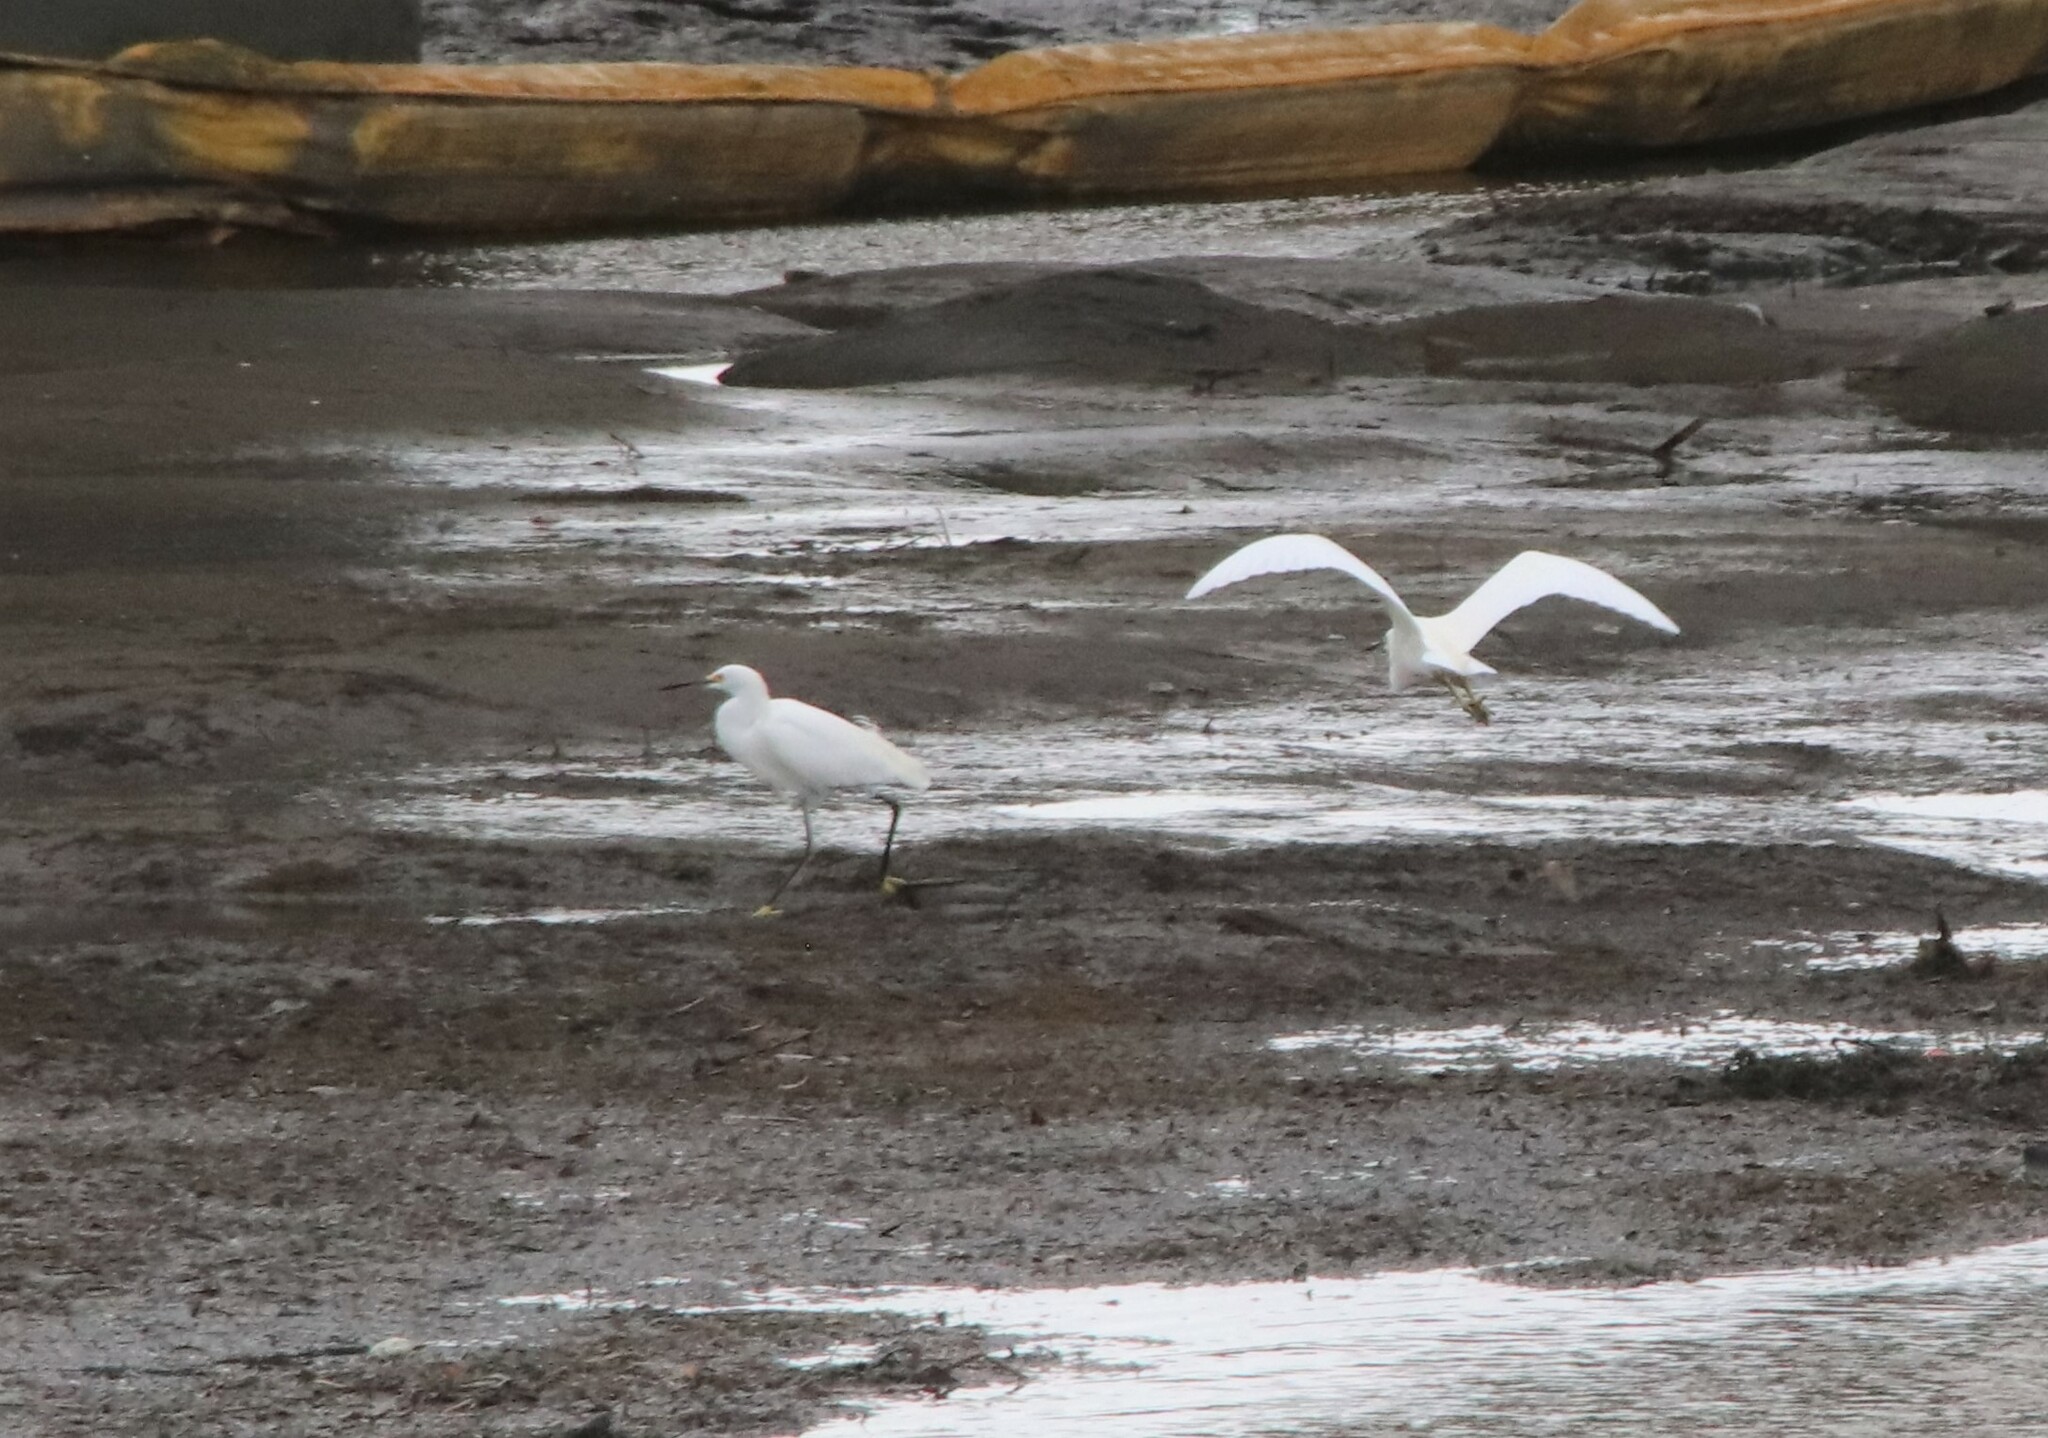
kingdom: Animalia
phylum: Chordata
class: Aves
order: Pelecaniformes
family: Ardeidae
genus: Egretta
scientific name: Egretta thula
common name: Snowy egret
